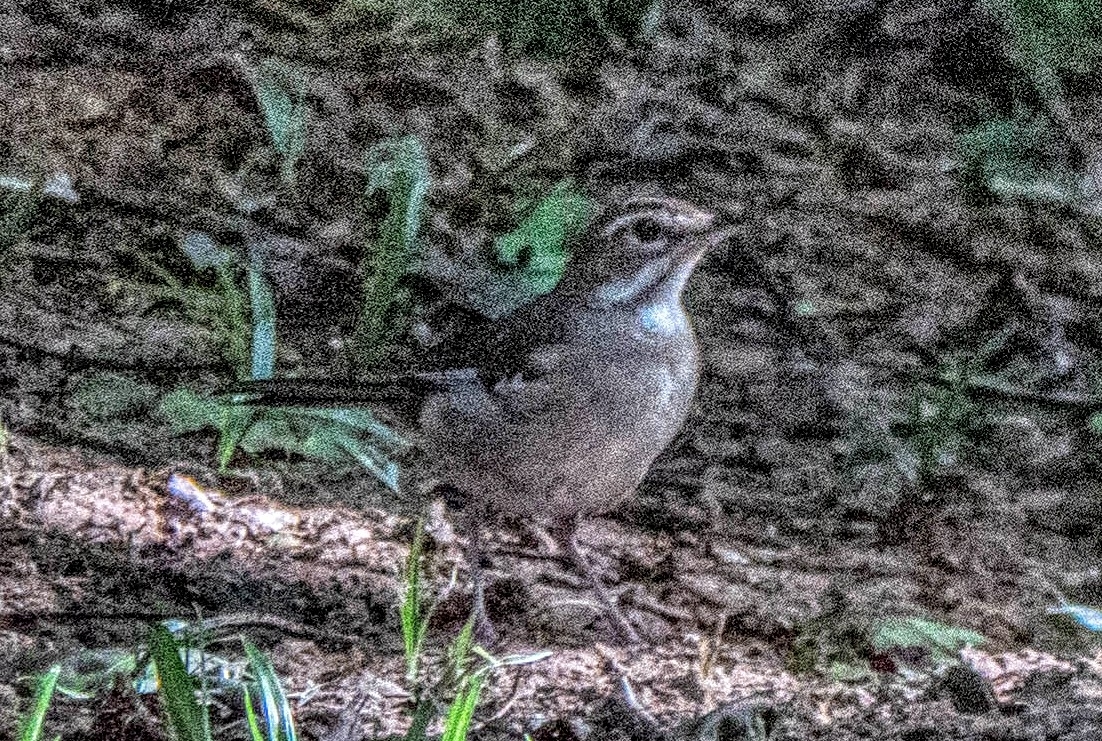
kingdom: Animalia
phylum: Chordata
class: Aves
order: Passeriformes
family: Muscicapidae
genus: Erythropygia
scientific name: Erythropygia signata
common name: Brown scrub robin
